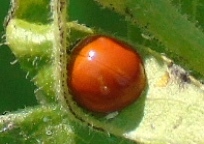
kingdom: Animalia
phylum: Arthropoda
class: Insecta
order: Coleoptera
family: Coccinellidae
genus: Cycloneda
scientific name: Cycloneda sanguinea
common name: Ladybird beetle
